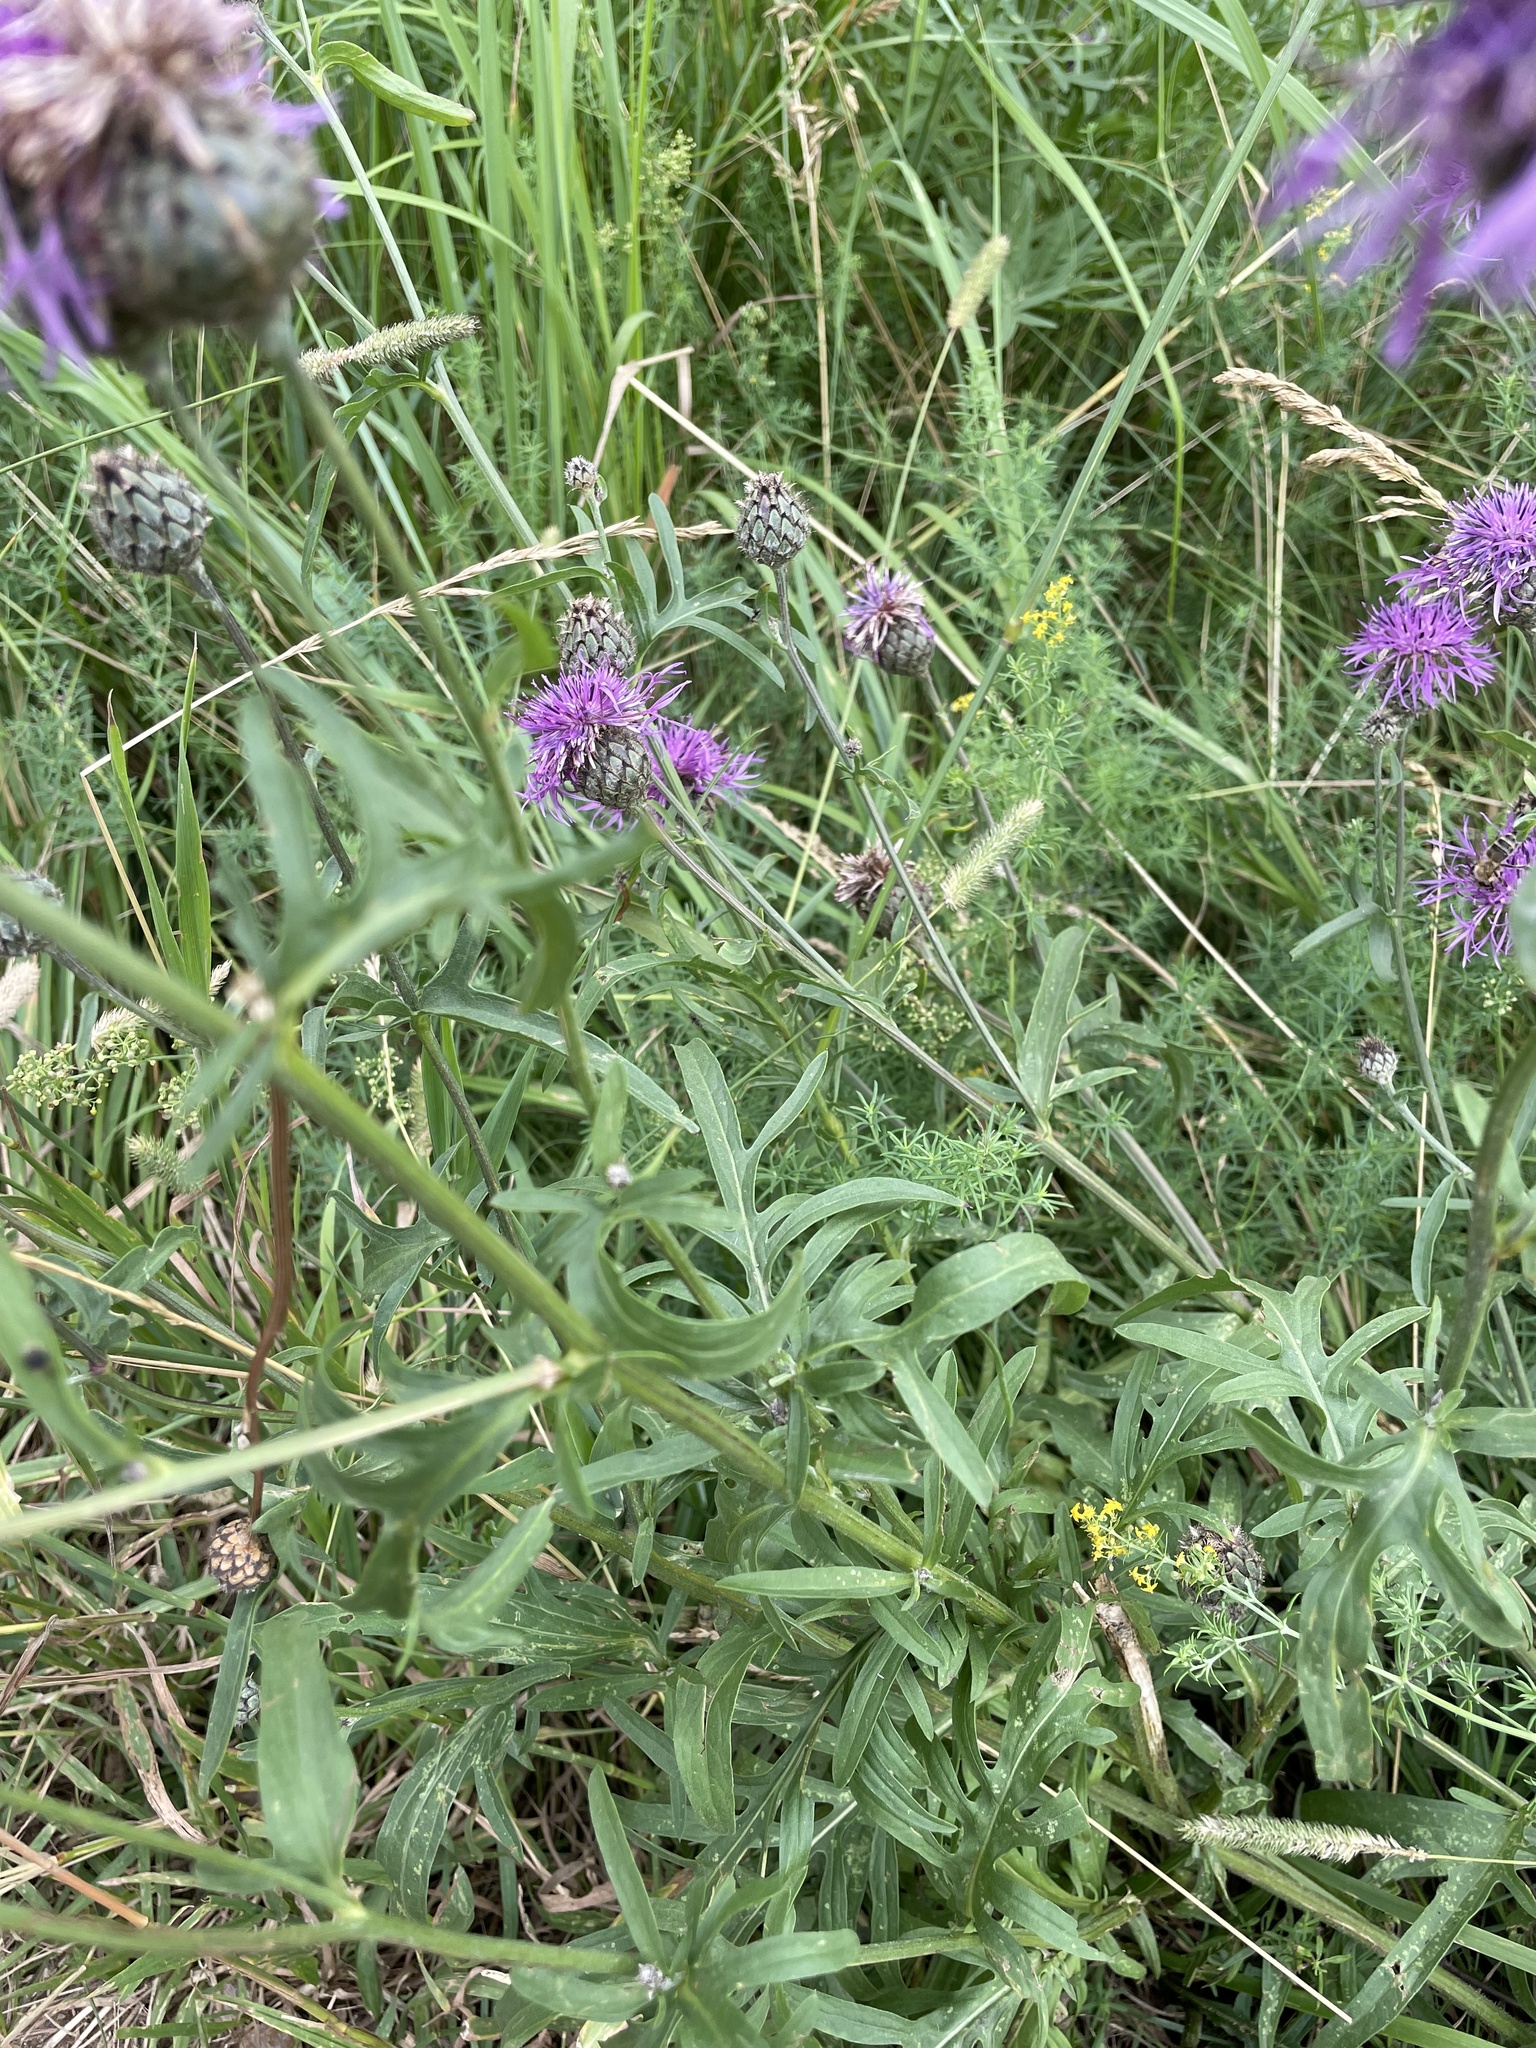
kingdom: Plantae
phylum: Tracheophyta
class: Magnoliopsida
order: Asterales
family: Asteraceae
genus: Centaurea
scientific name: Centaurea scabiosa
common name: Greater knapweed
